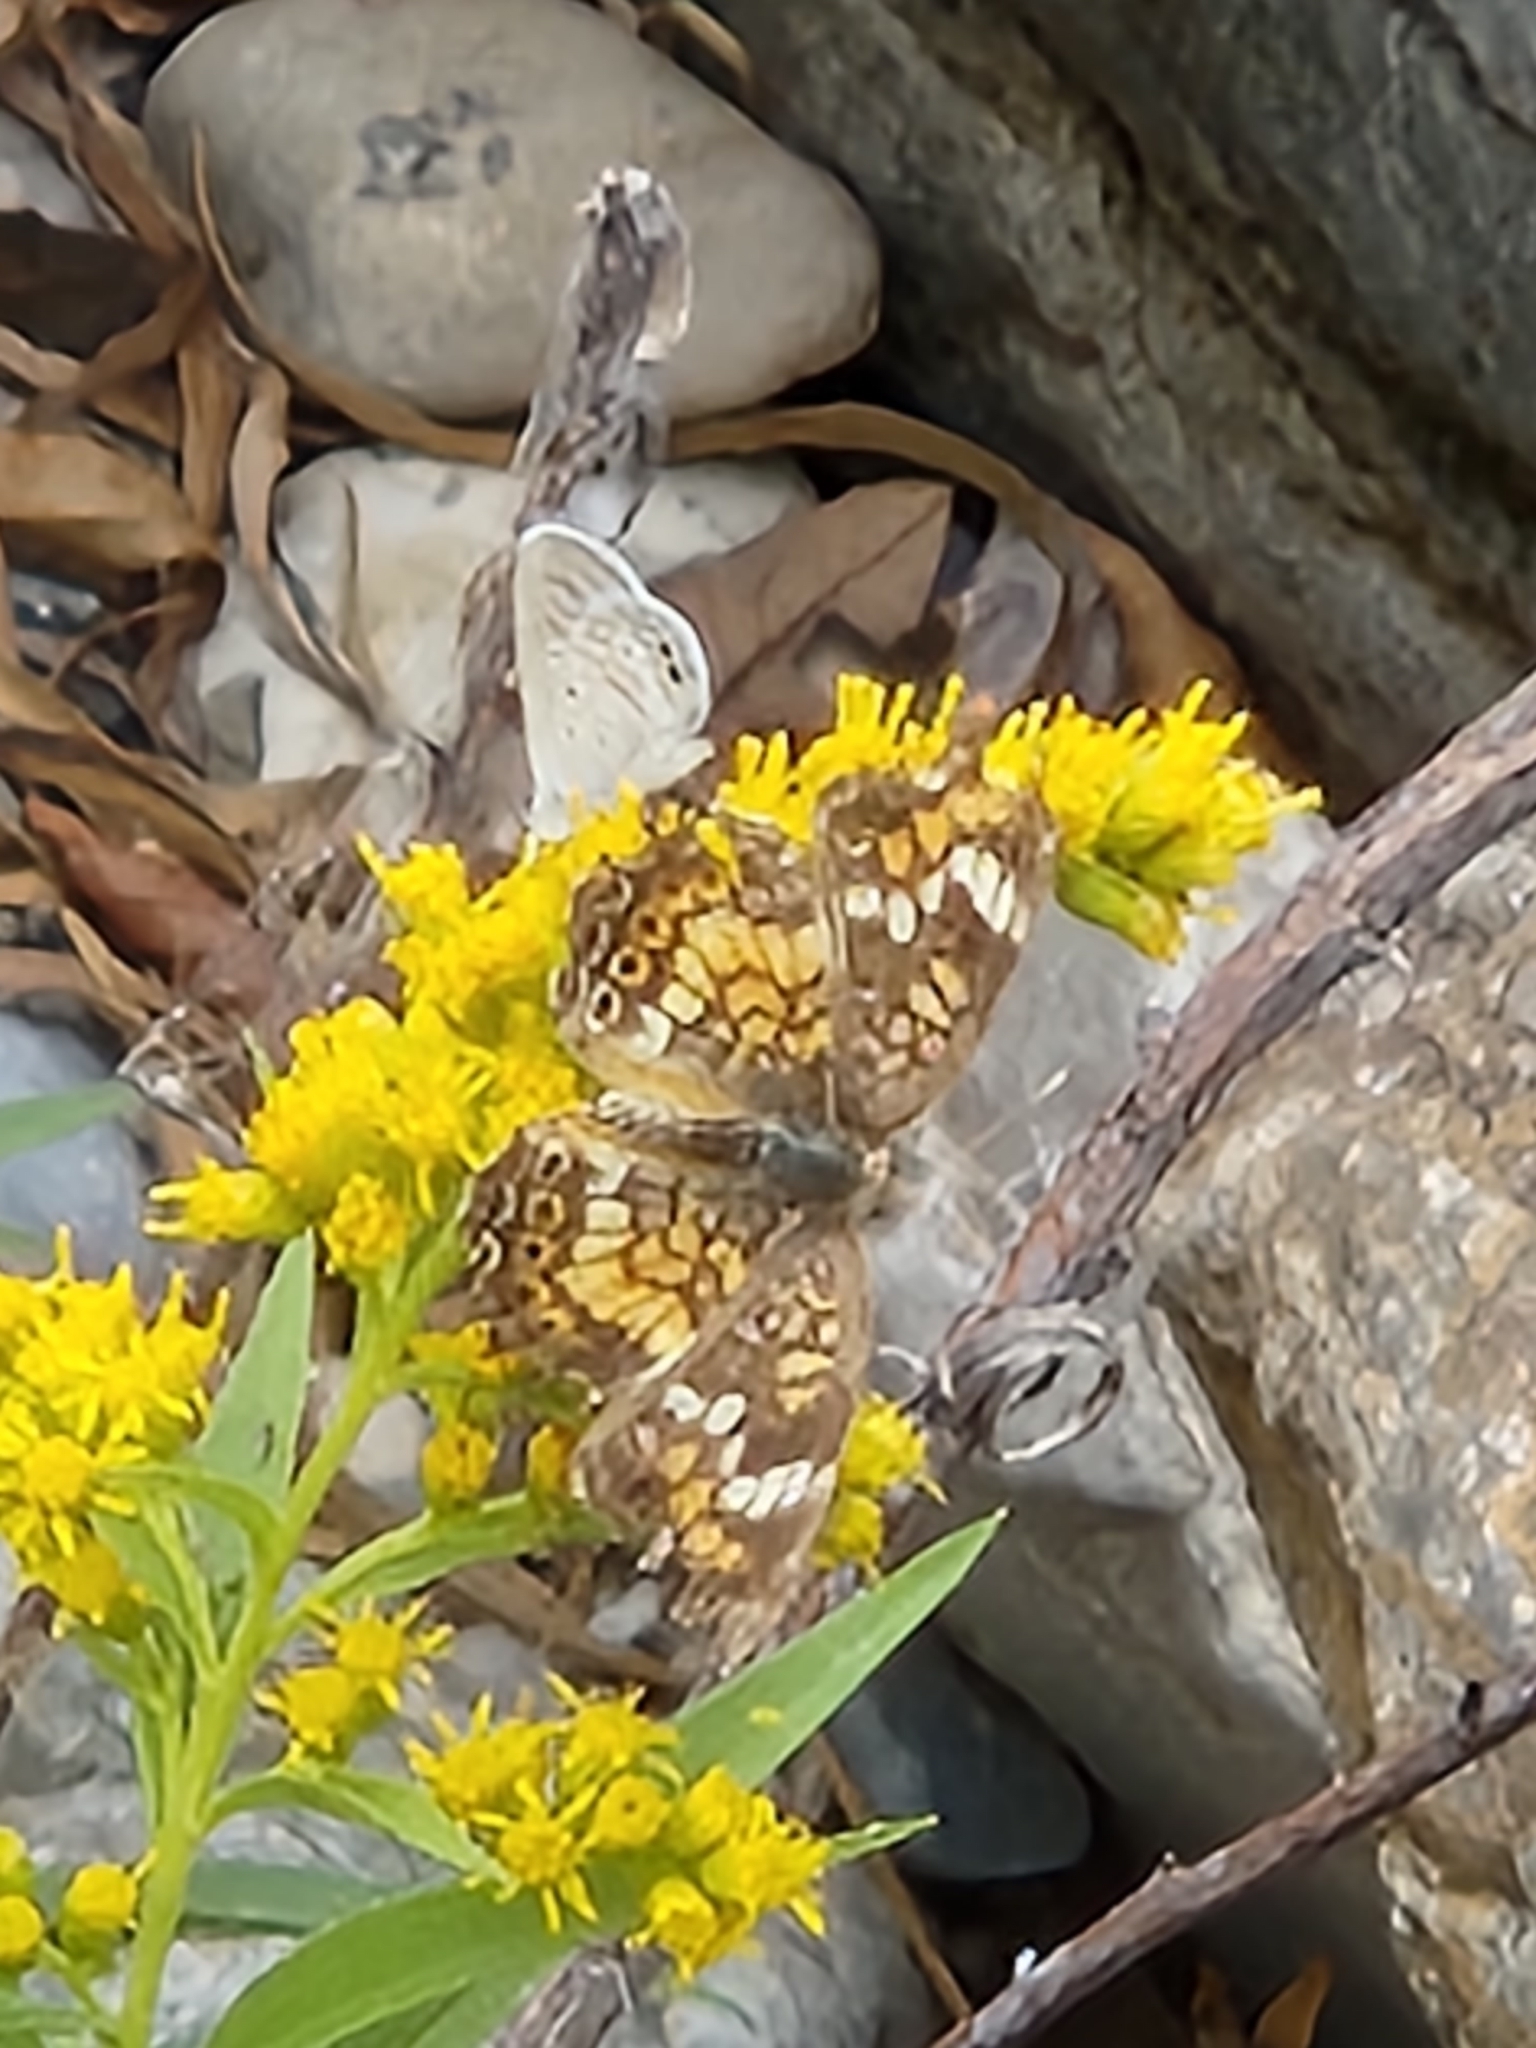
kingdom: Animalia
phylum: Arthropoda
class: Insecta
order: Lepidoptera
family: Nymphalidae
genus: Phyciodes
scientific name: Phyciodes phaon
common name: Phaon crescent
